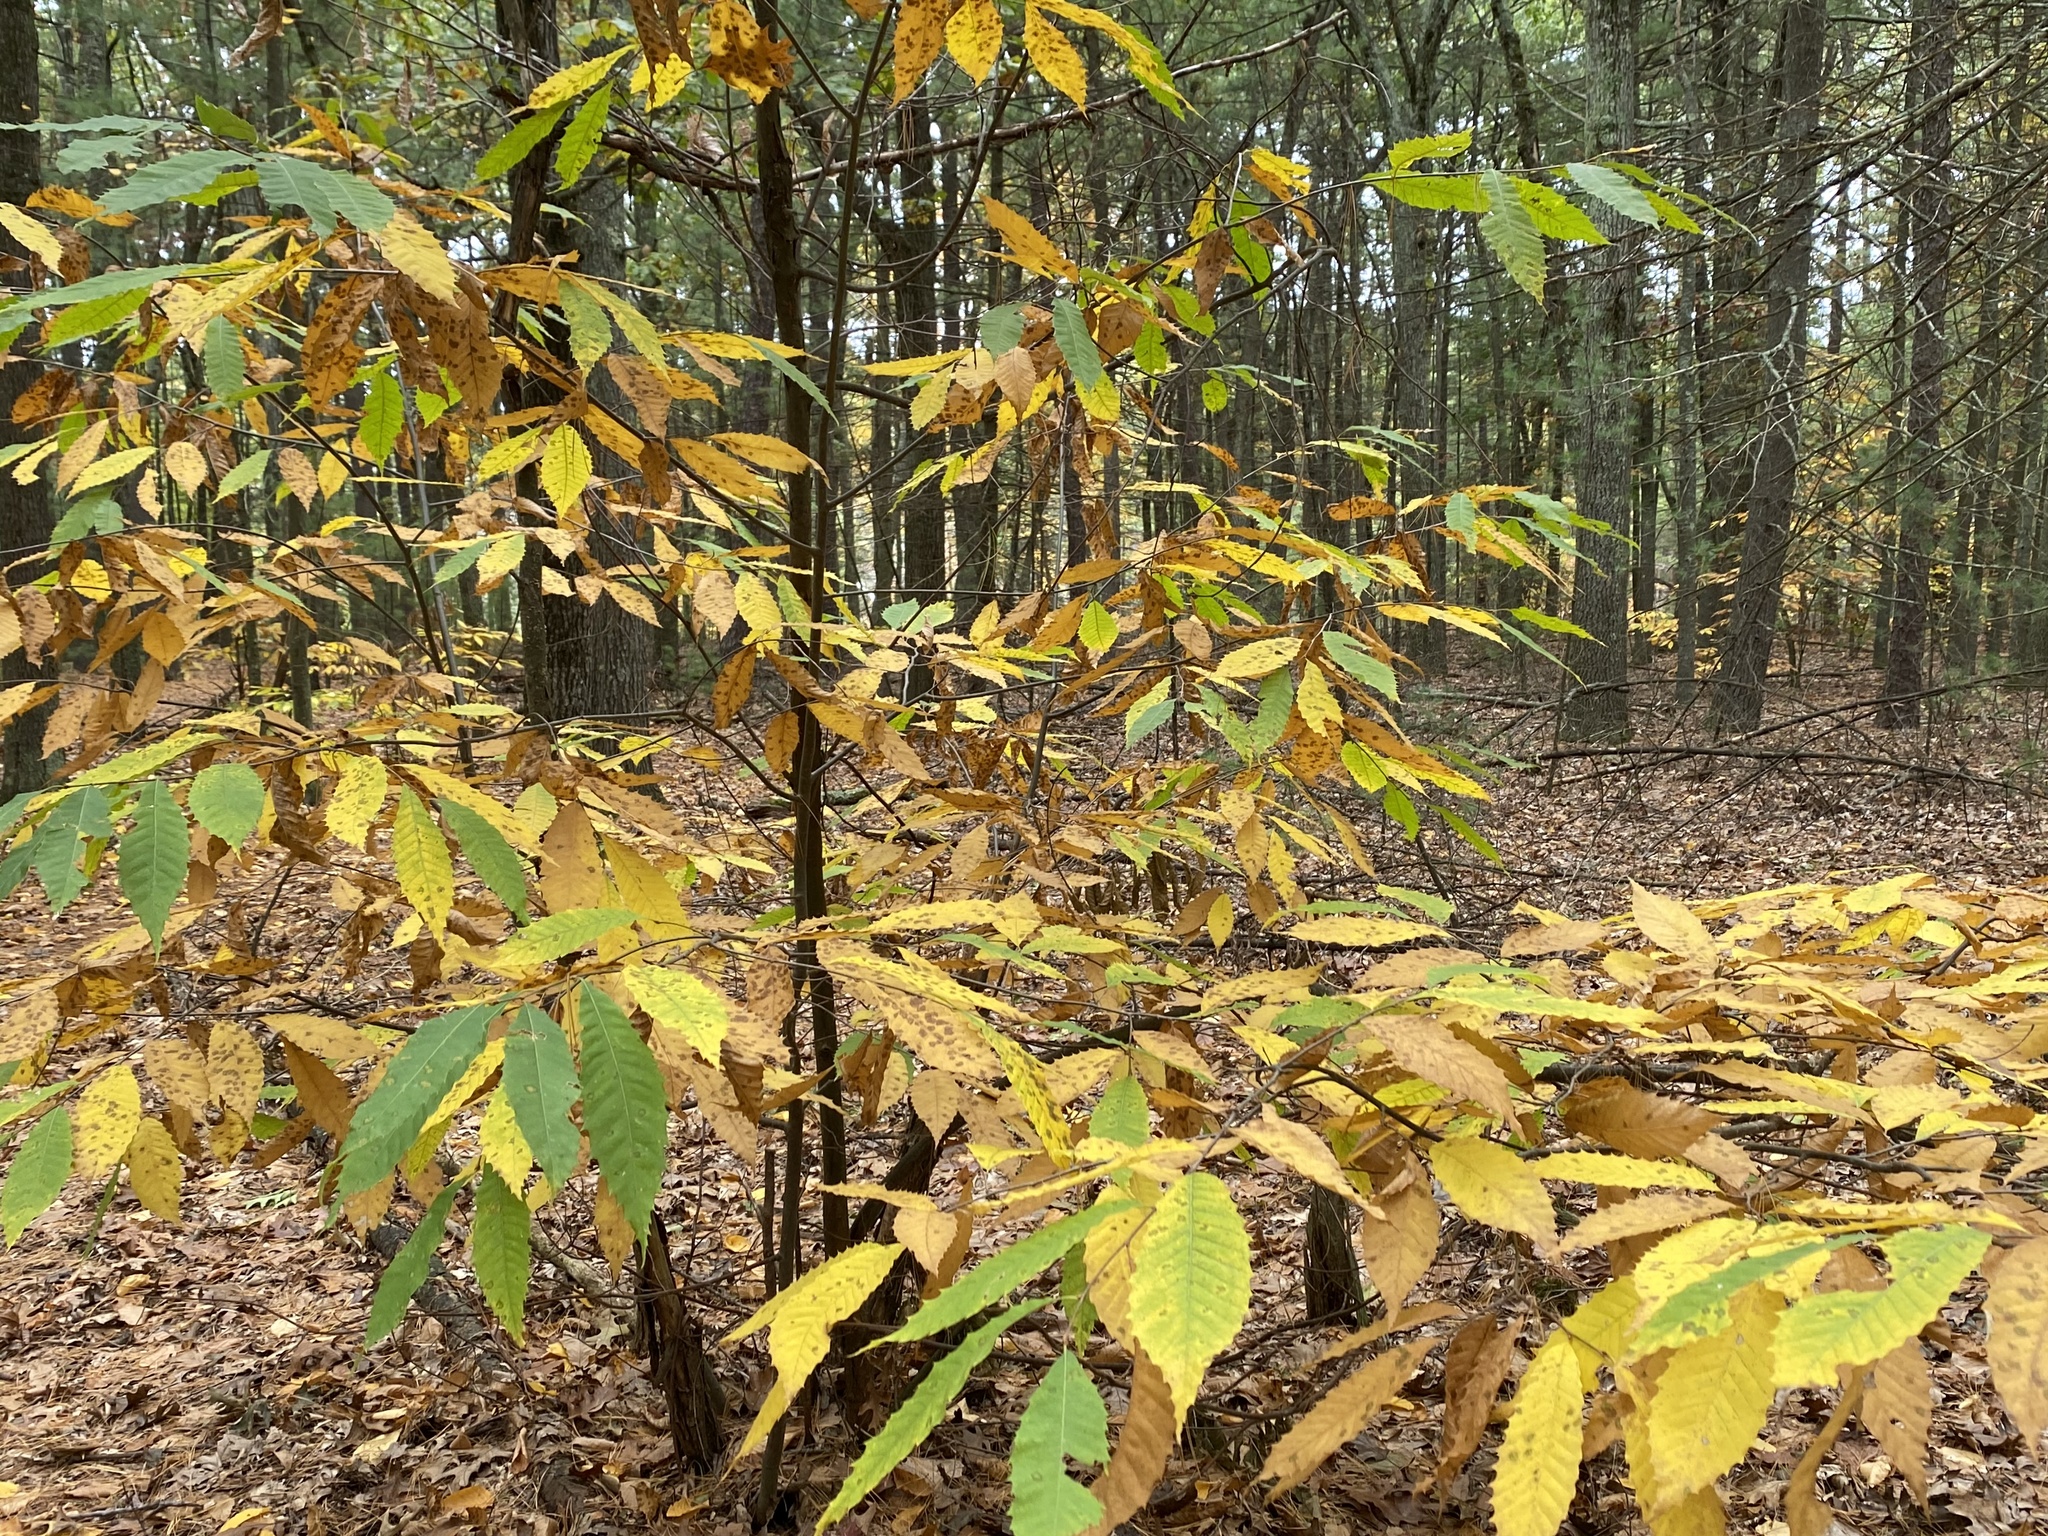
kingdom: Plantae
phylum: Tracheophyta
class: Magnoliopsida
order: Fagales
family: Fagaceae
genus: Castanea
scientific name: Castanea dentata
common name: American chestnut
